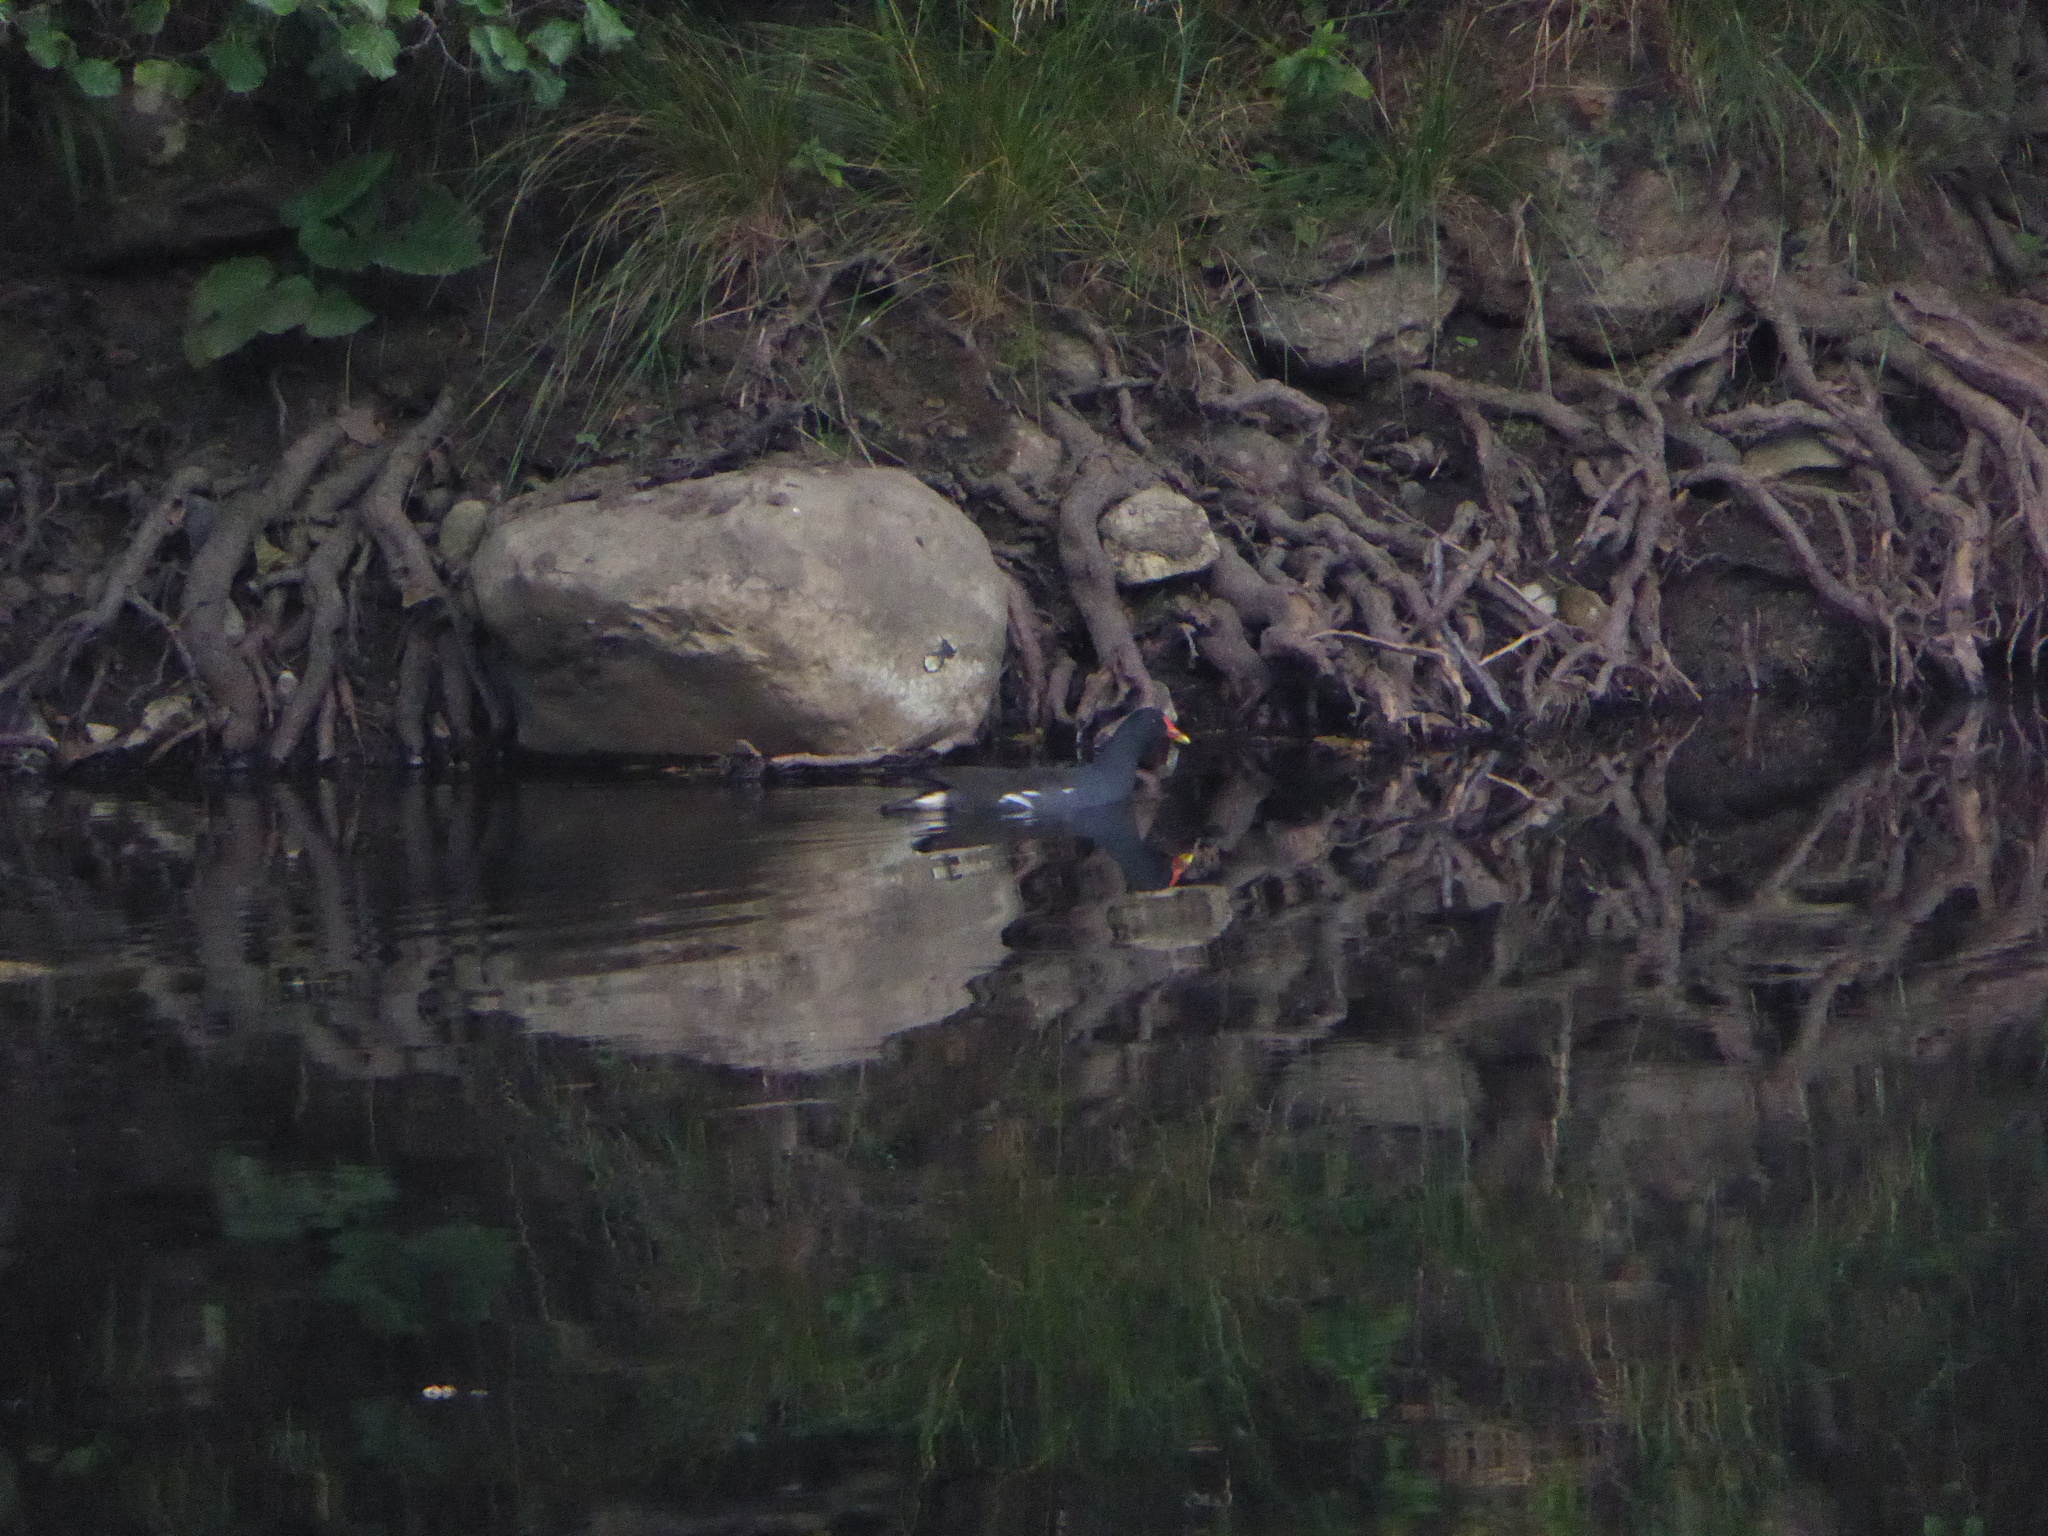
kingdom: Animalia
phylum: Chordata
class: Aves
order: Gruiformes
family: Rallidae
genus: Gallinula
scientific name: Gallinula chloropus
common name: Common moorhen
